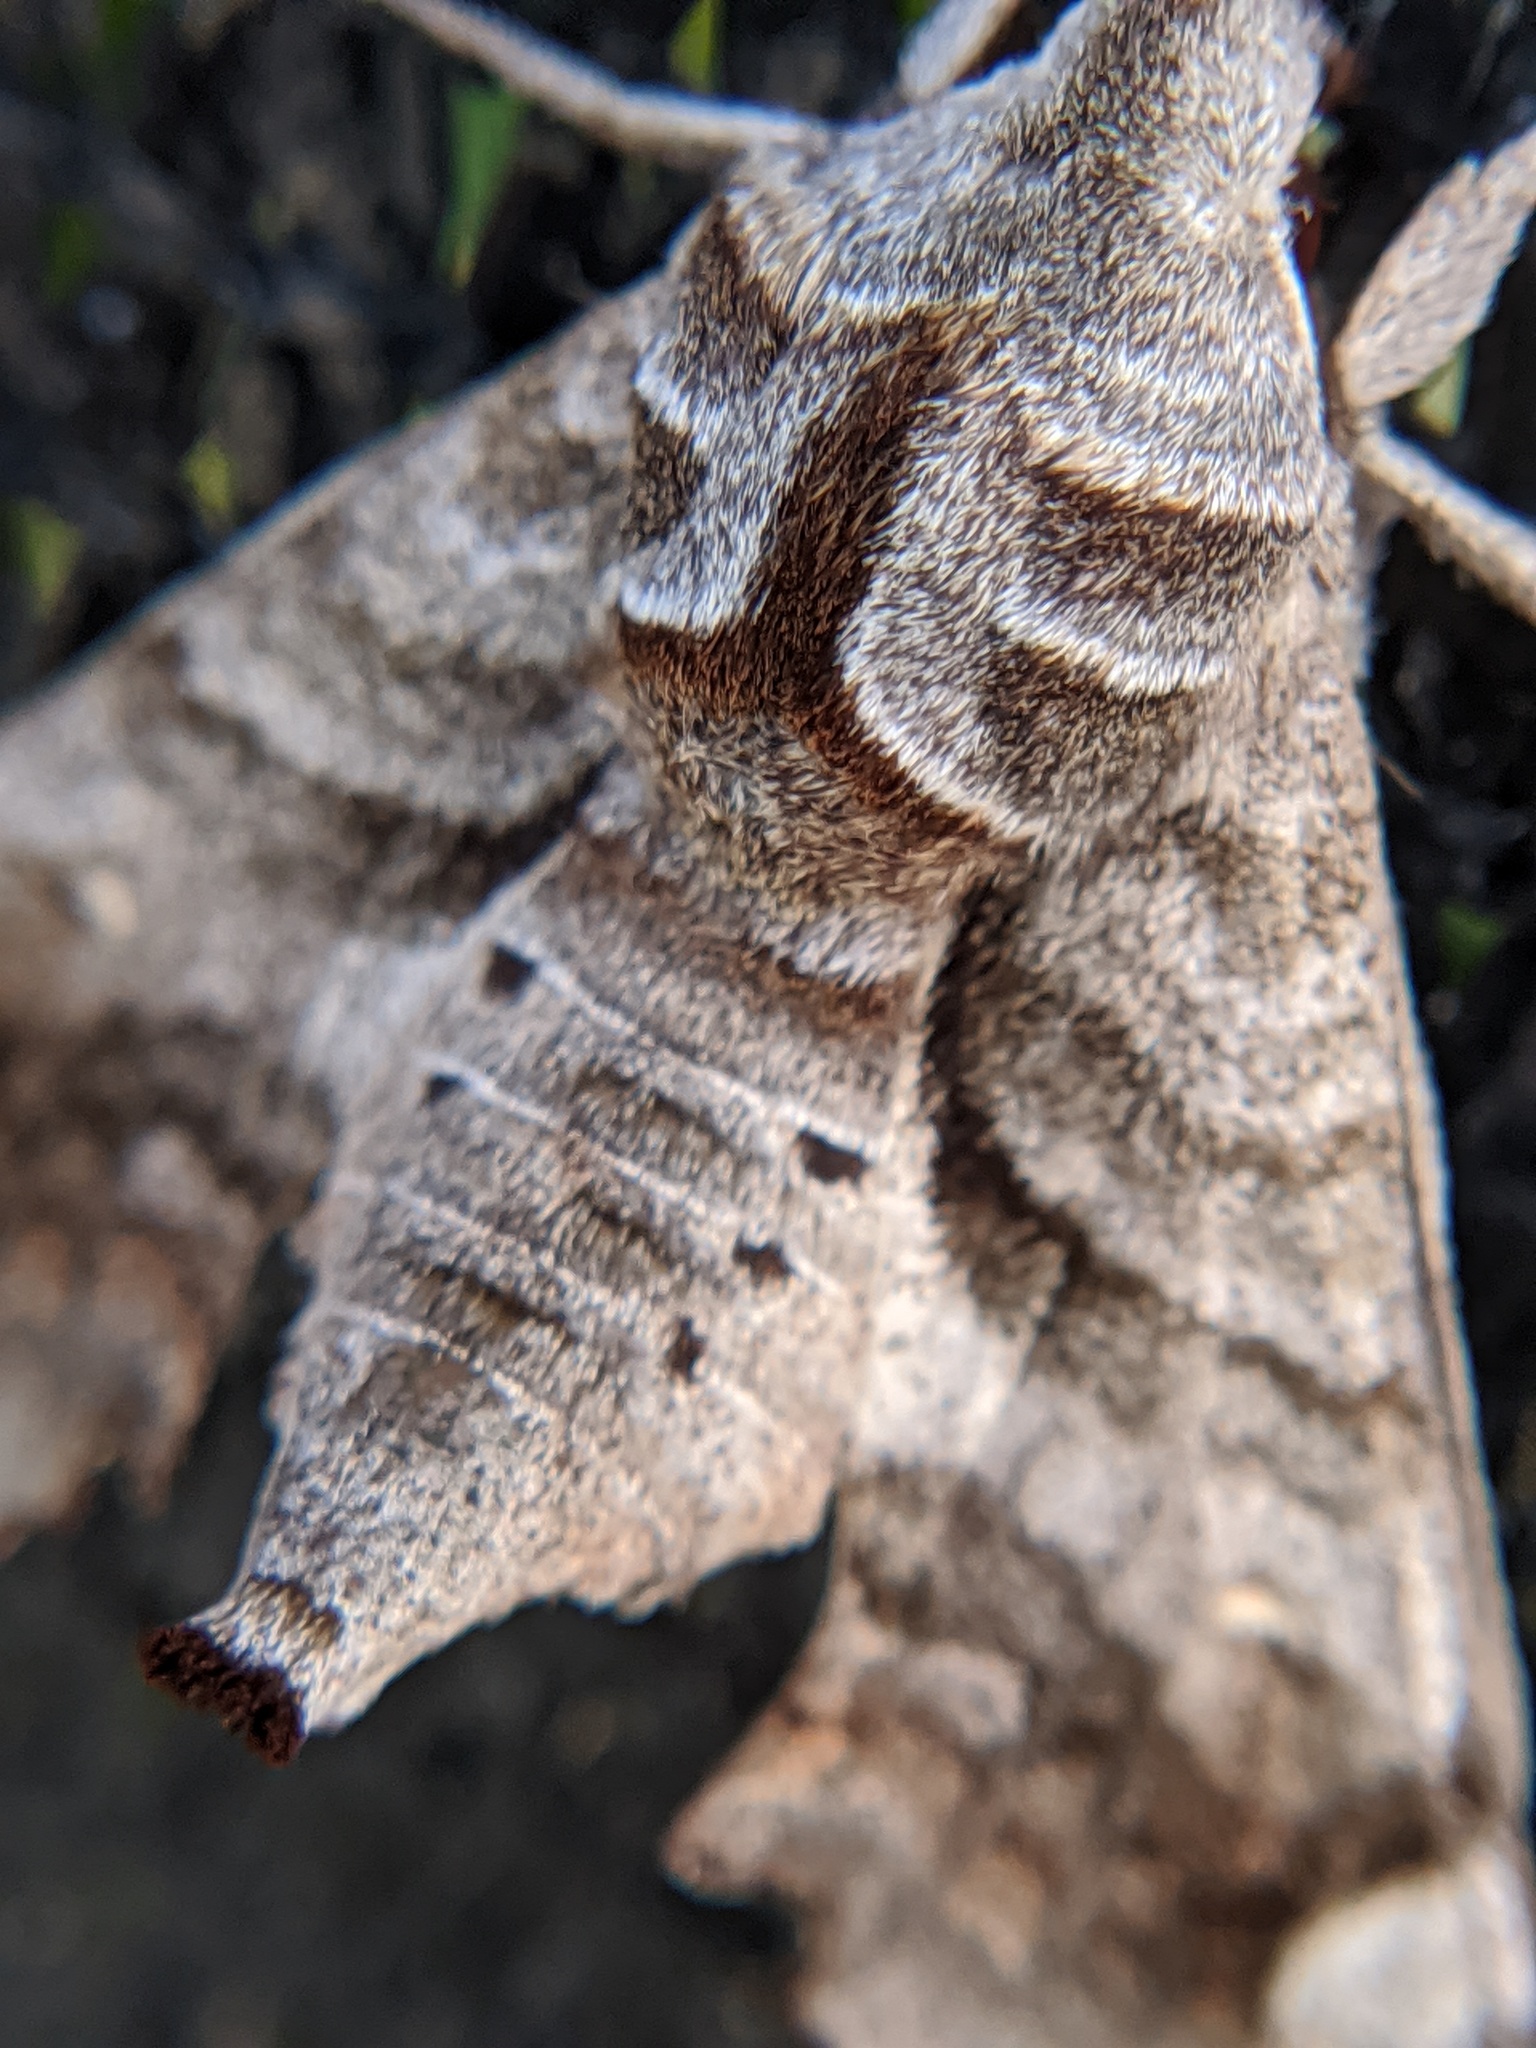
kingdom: Animalia
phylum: Arthropoda
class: Insecta
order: Lepidoptera
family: Sphingidae
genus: Deidamia
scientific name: Deidamia inscriptum
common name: Lettered sphinx
